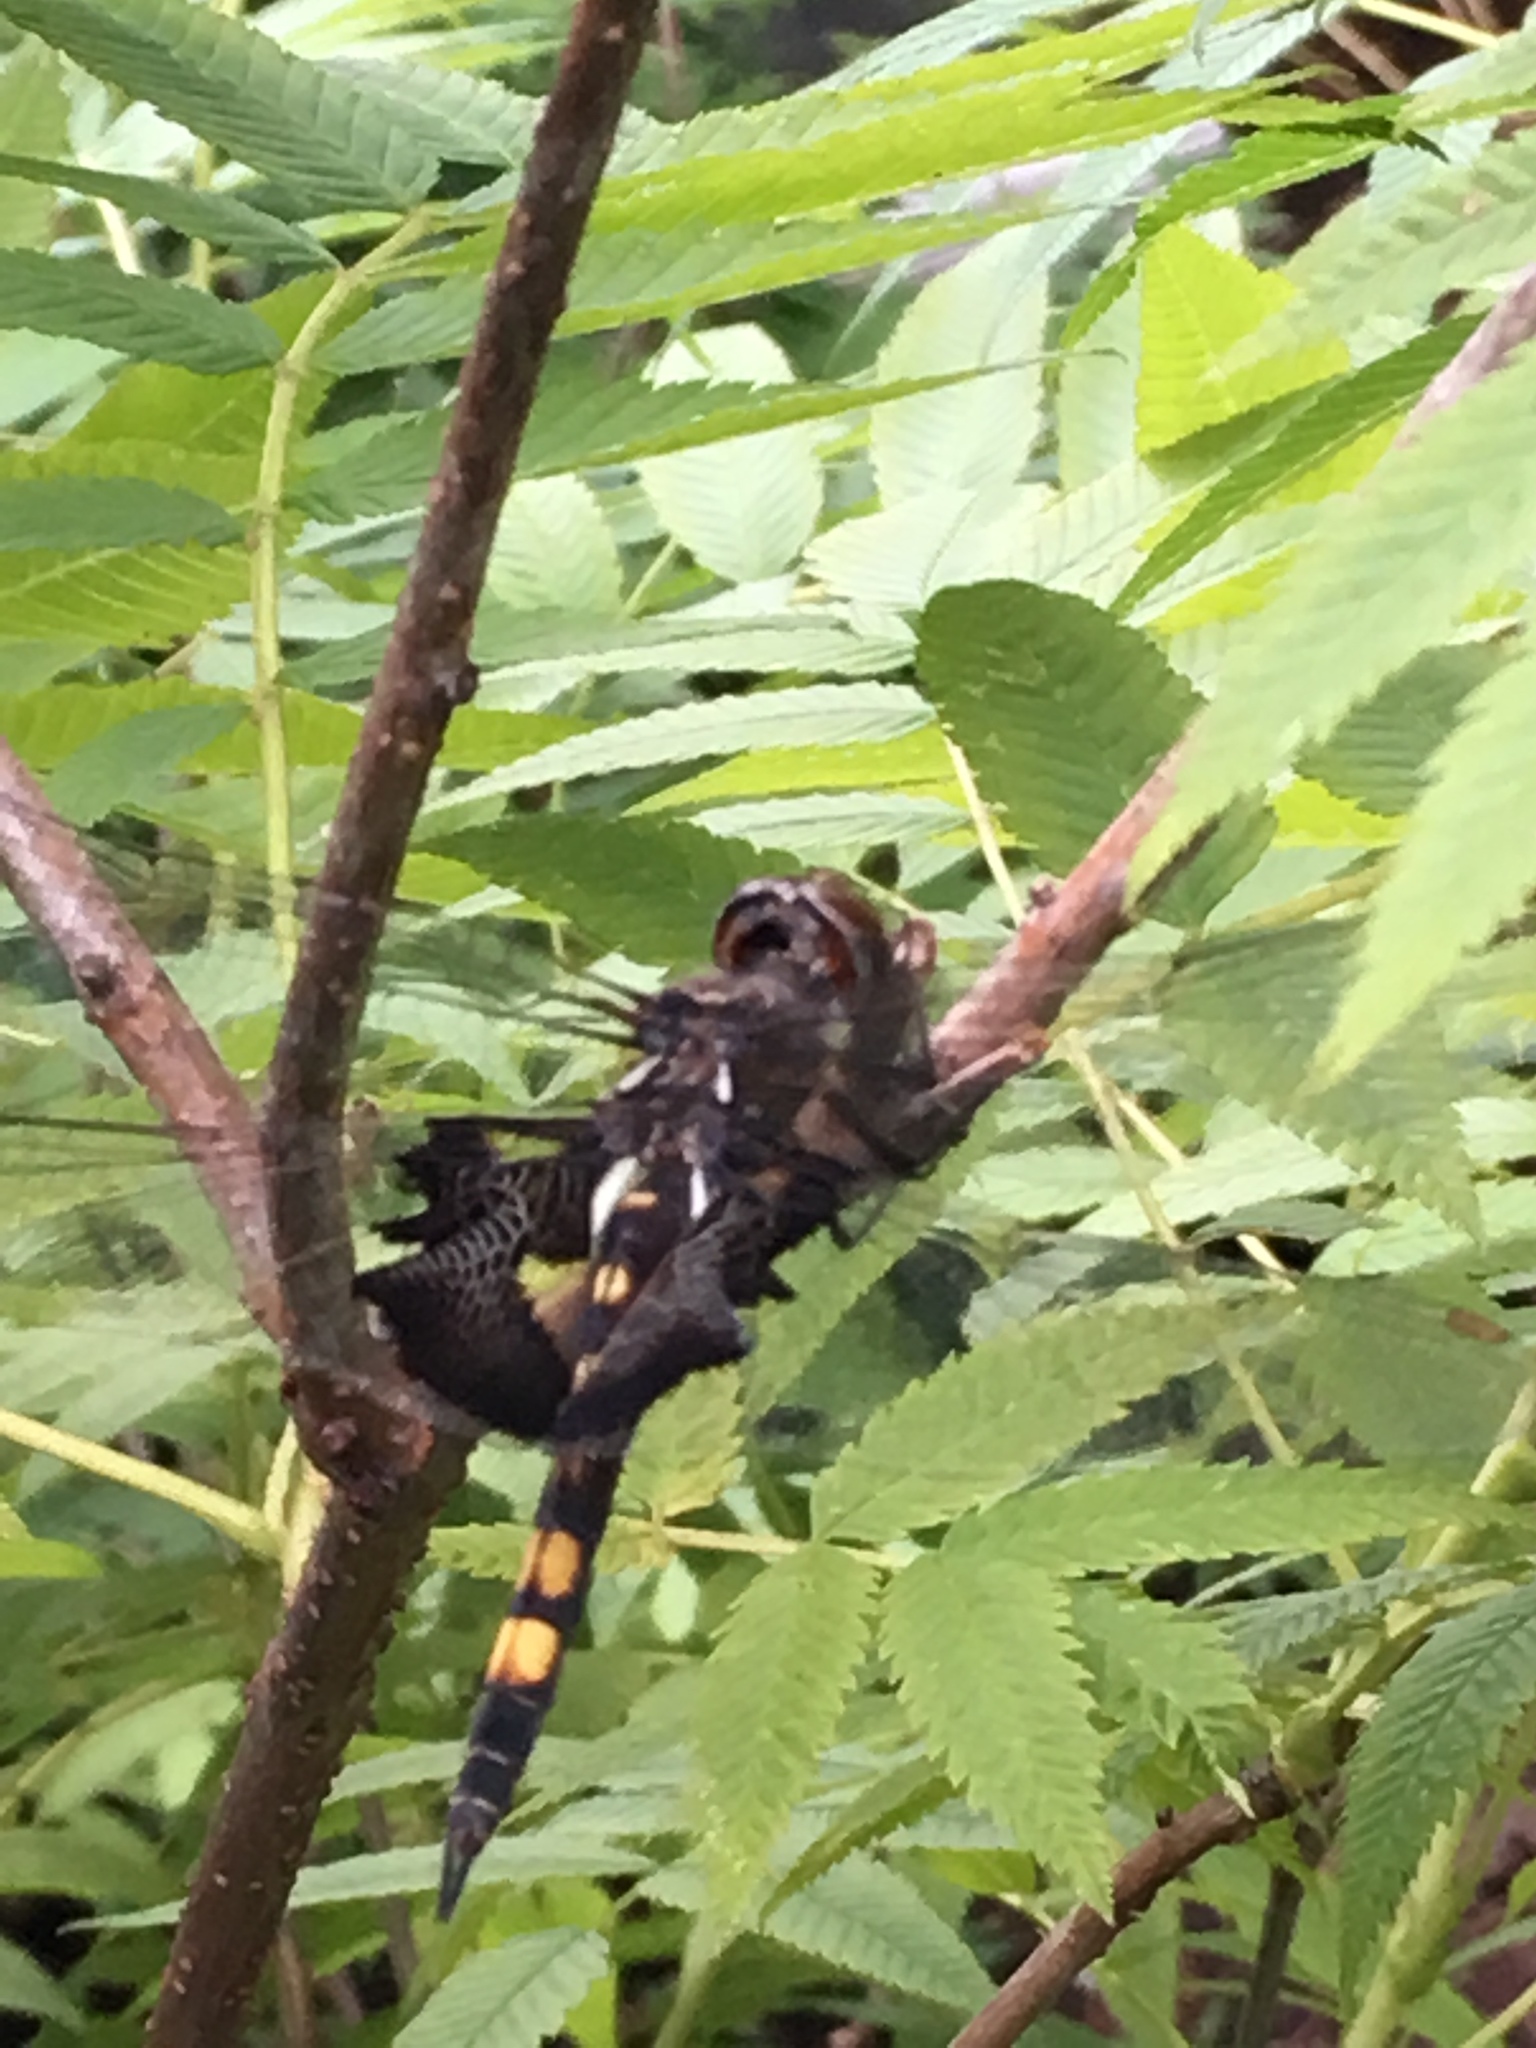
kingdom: Animalia
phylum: Arthropoda
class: Insecta
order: Odonata
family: Libellulidae
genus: Tramea
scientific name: Tramea lacerata
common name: Black saddlebags
